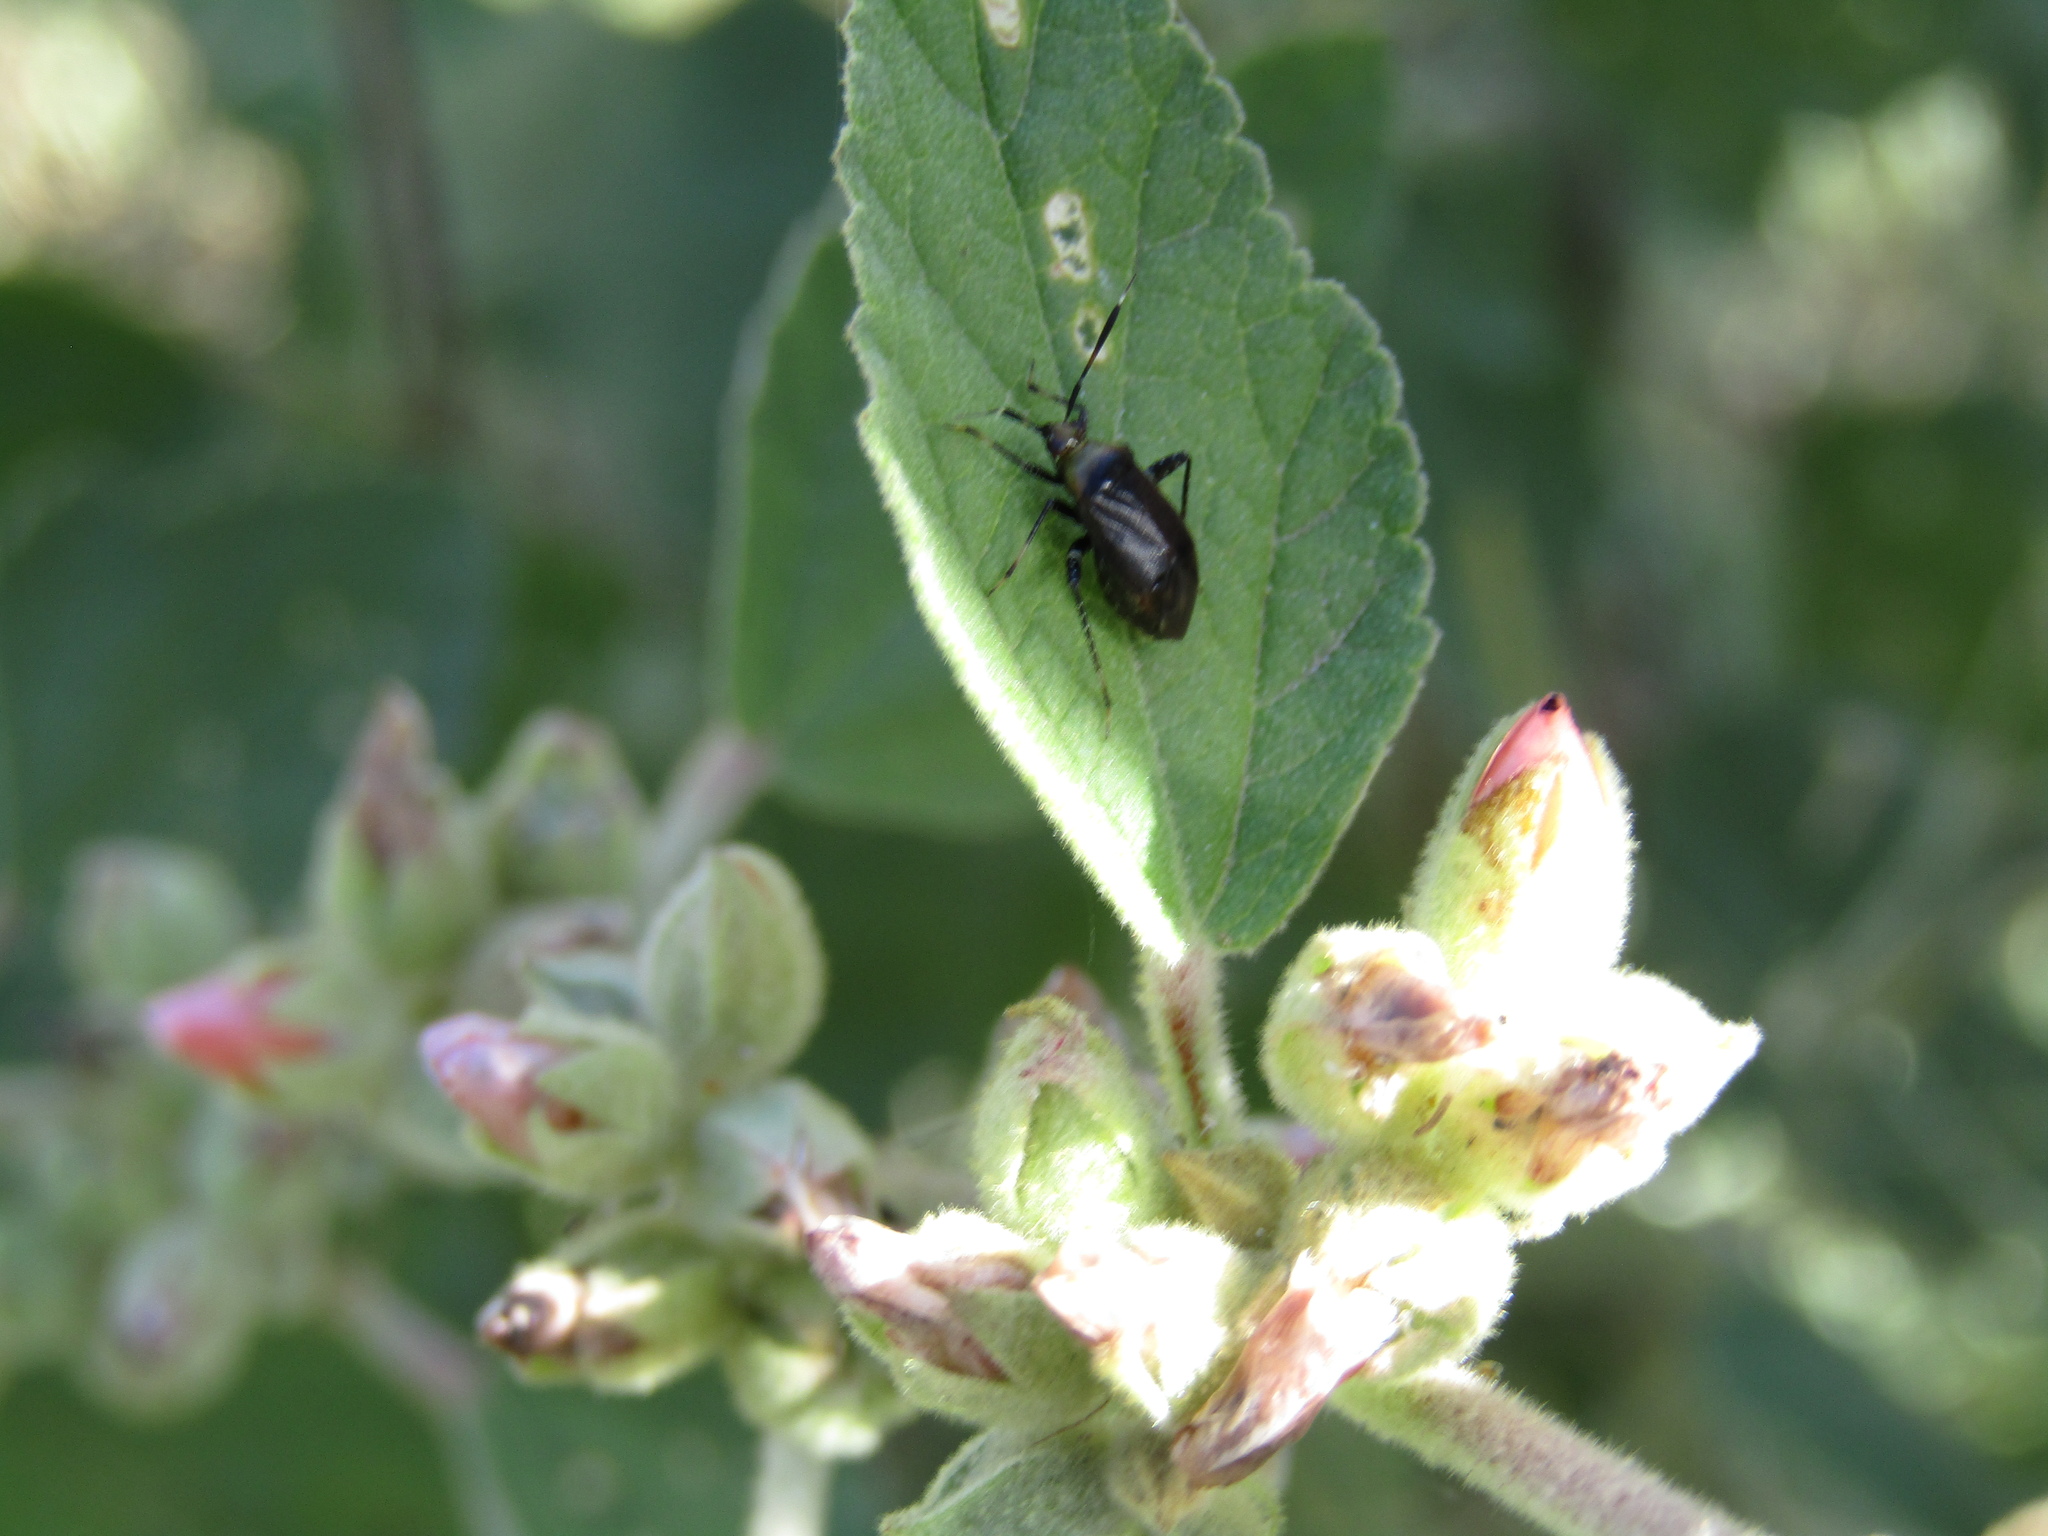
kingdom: Animalia
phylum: Arthropoda
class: Insecta
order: Hemiptera
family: Miridae
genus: Horciasinus
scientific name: Horciasinus argentinus
